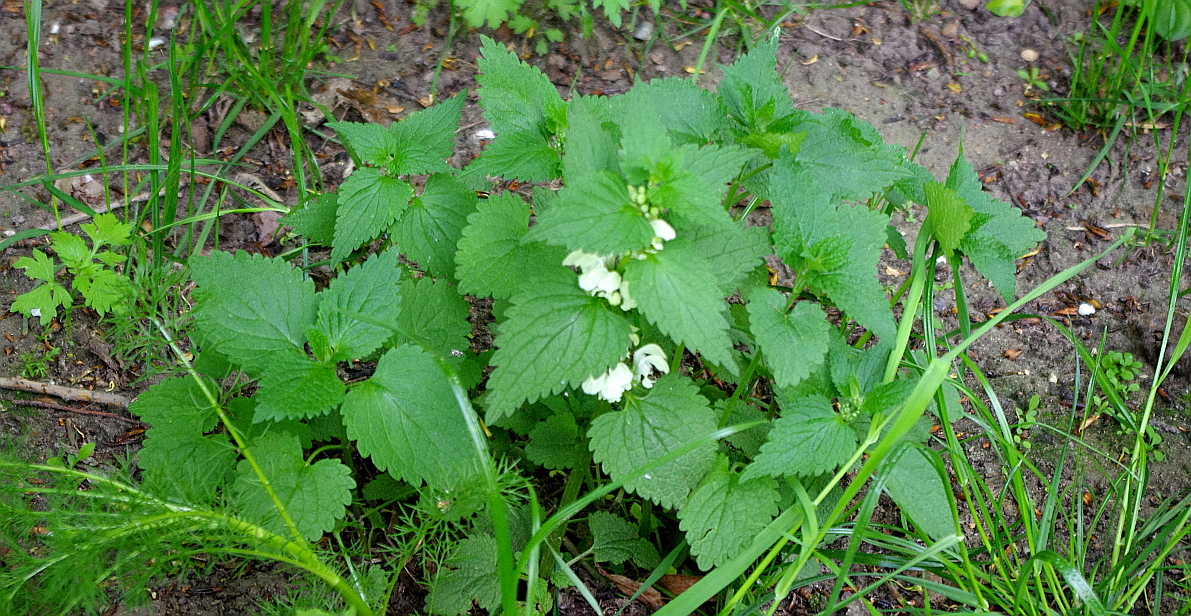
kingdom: Plantae
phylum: Tracheophyta
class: Magnoliopsida
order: Lamiales
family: Lamiaceae
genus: Lamium
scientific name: Lamium album
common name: White dead-nettle
